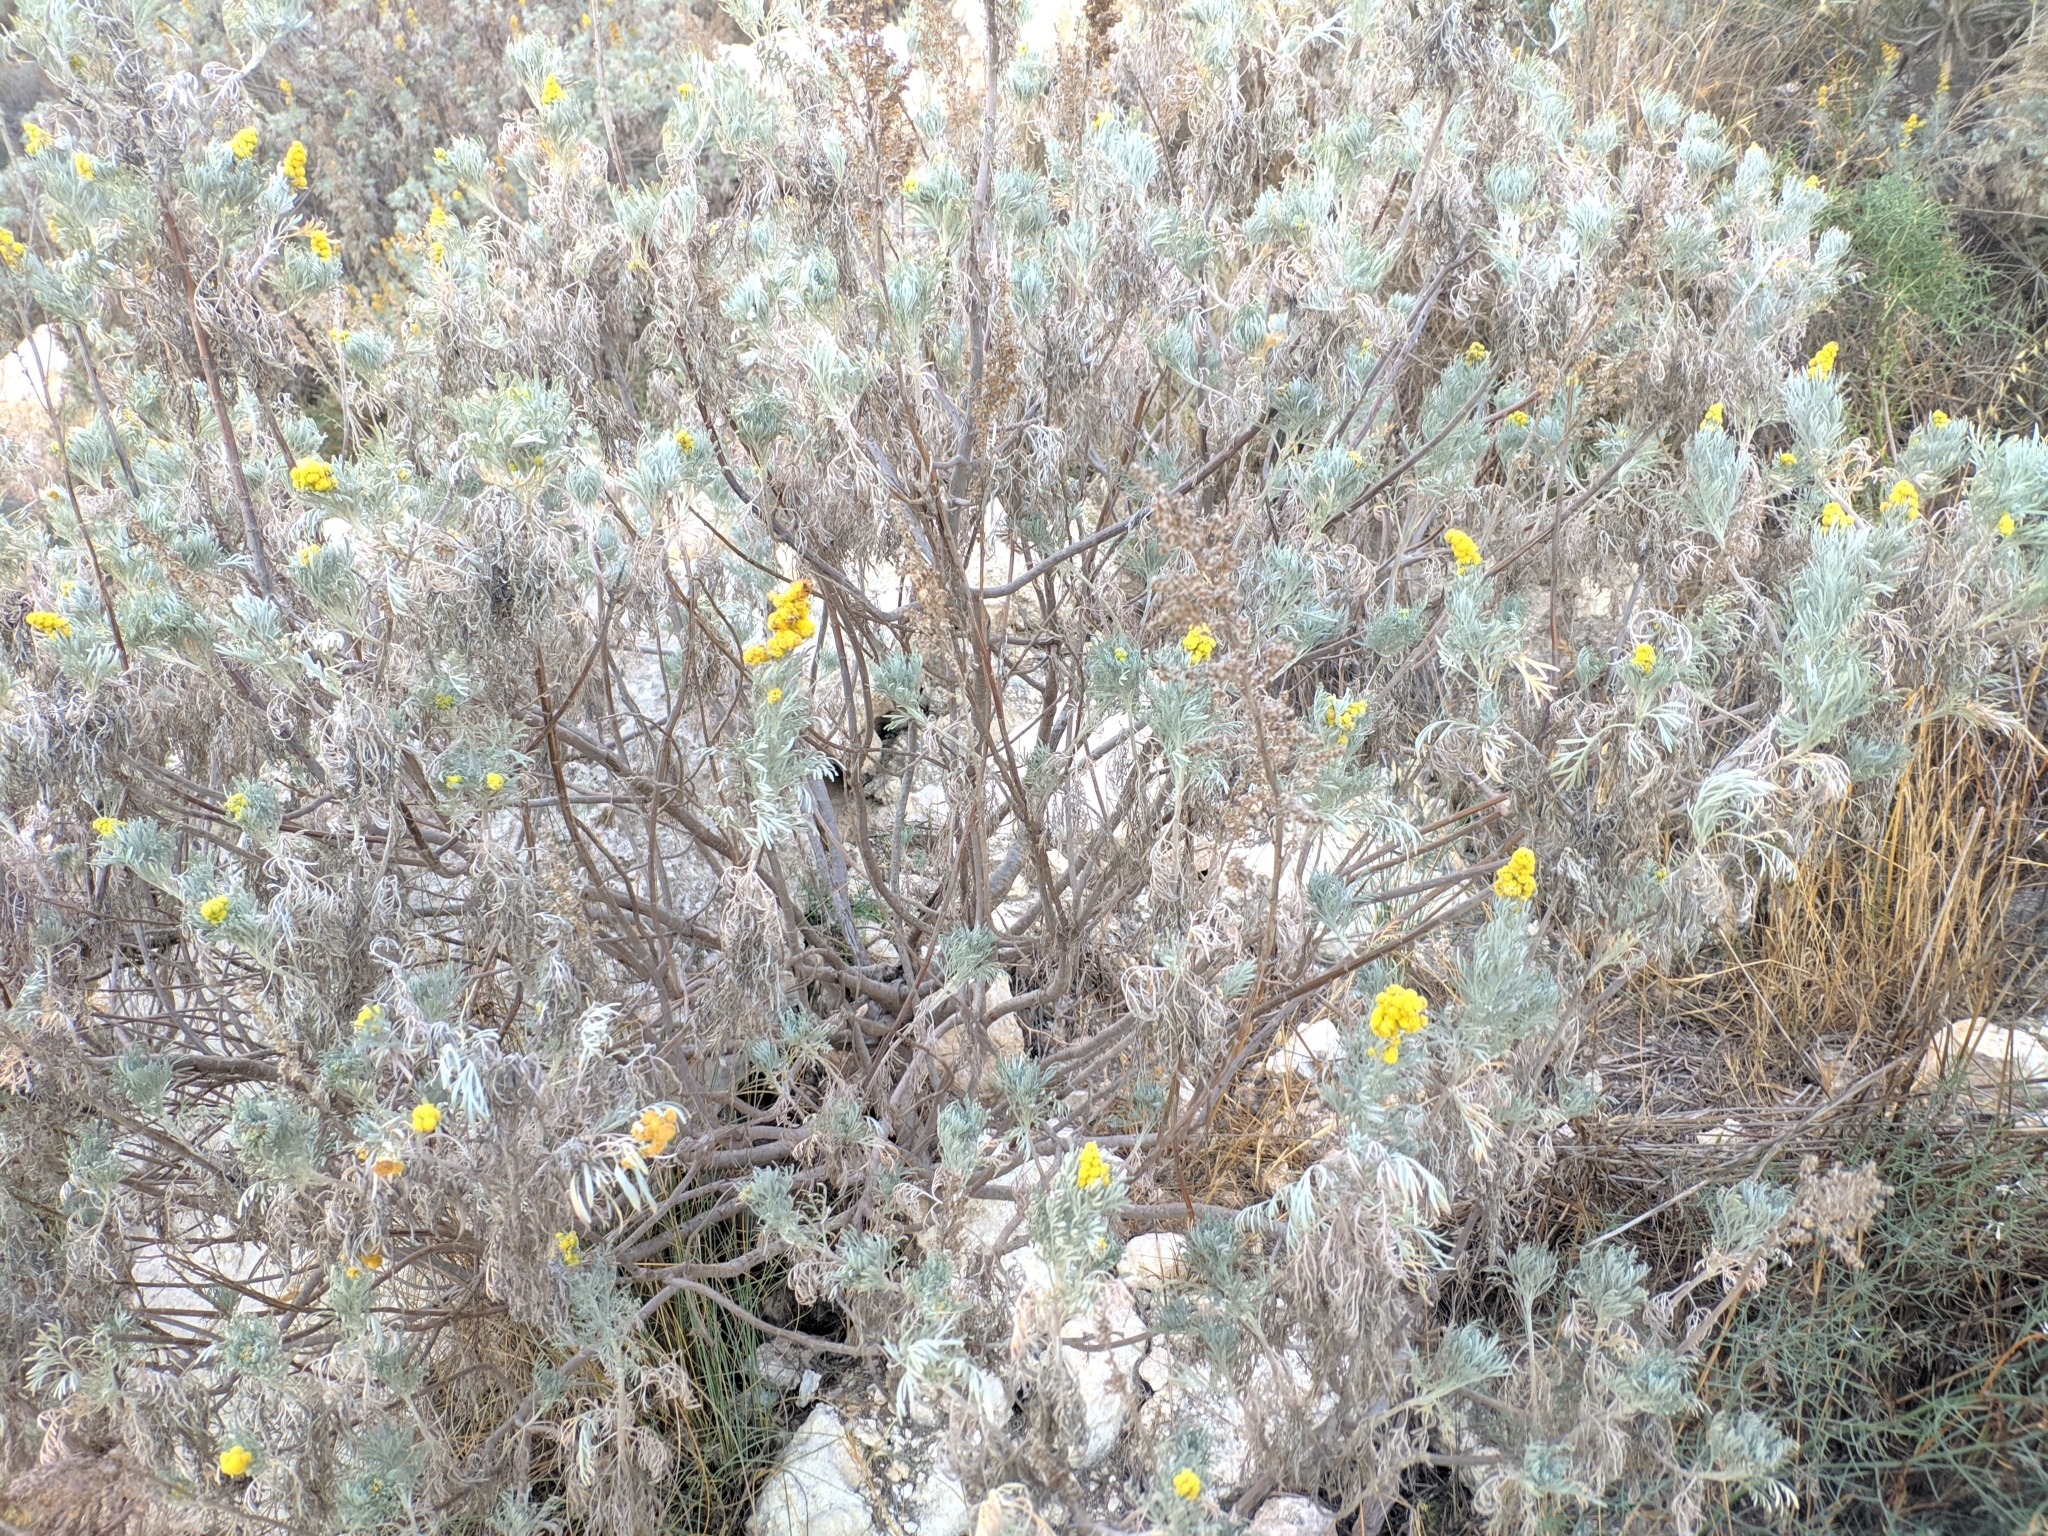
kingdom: Plantae
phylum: Tracheophyta
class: Magnoliopsida
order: Asterales
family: Asteraceae
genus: Artemisia
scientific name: Artemisia arborescens
